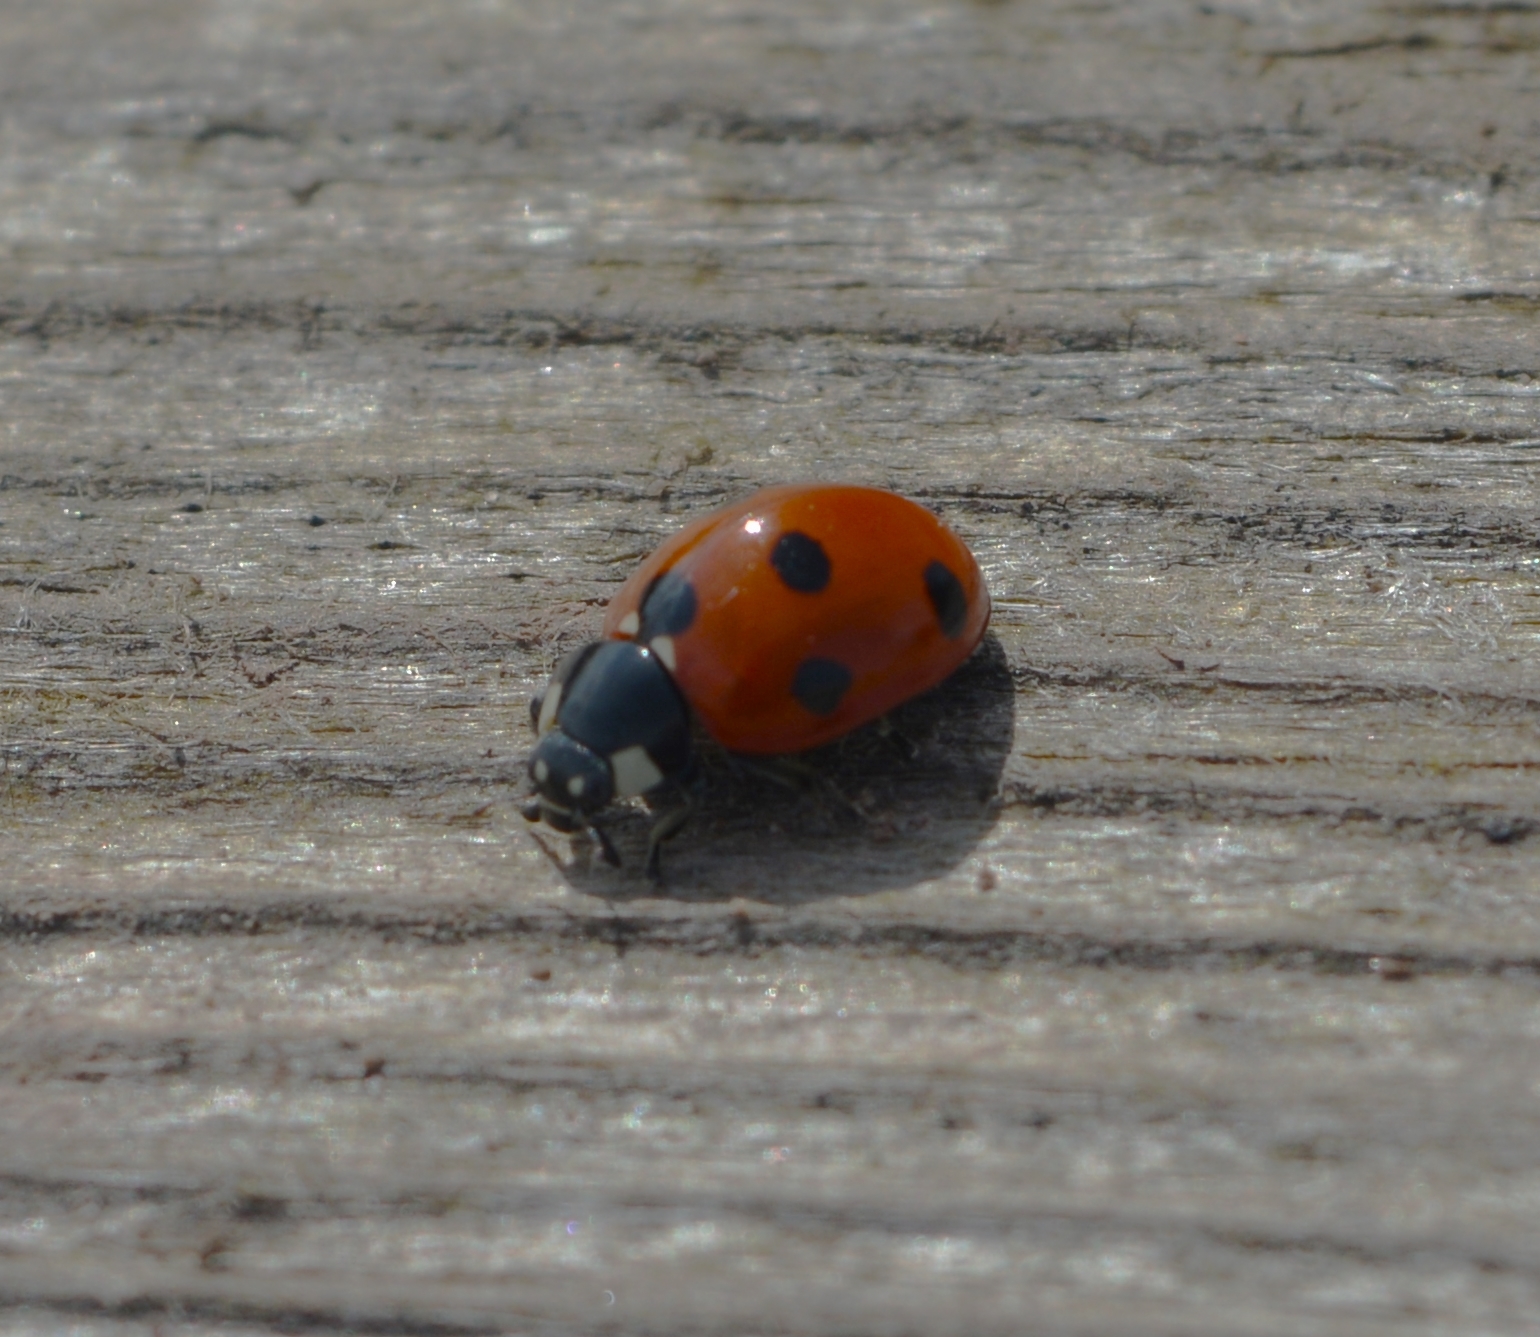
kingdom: Animalia
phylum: Arthropoda
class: Insecta
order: Coleoptera
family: Coccinellidae
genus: Coccinella
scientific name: Coccinella septempunctata
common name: Sevenspotted lady beetle
